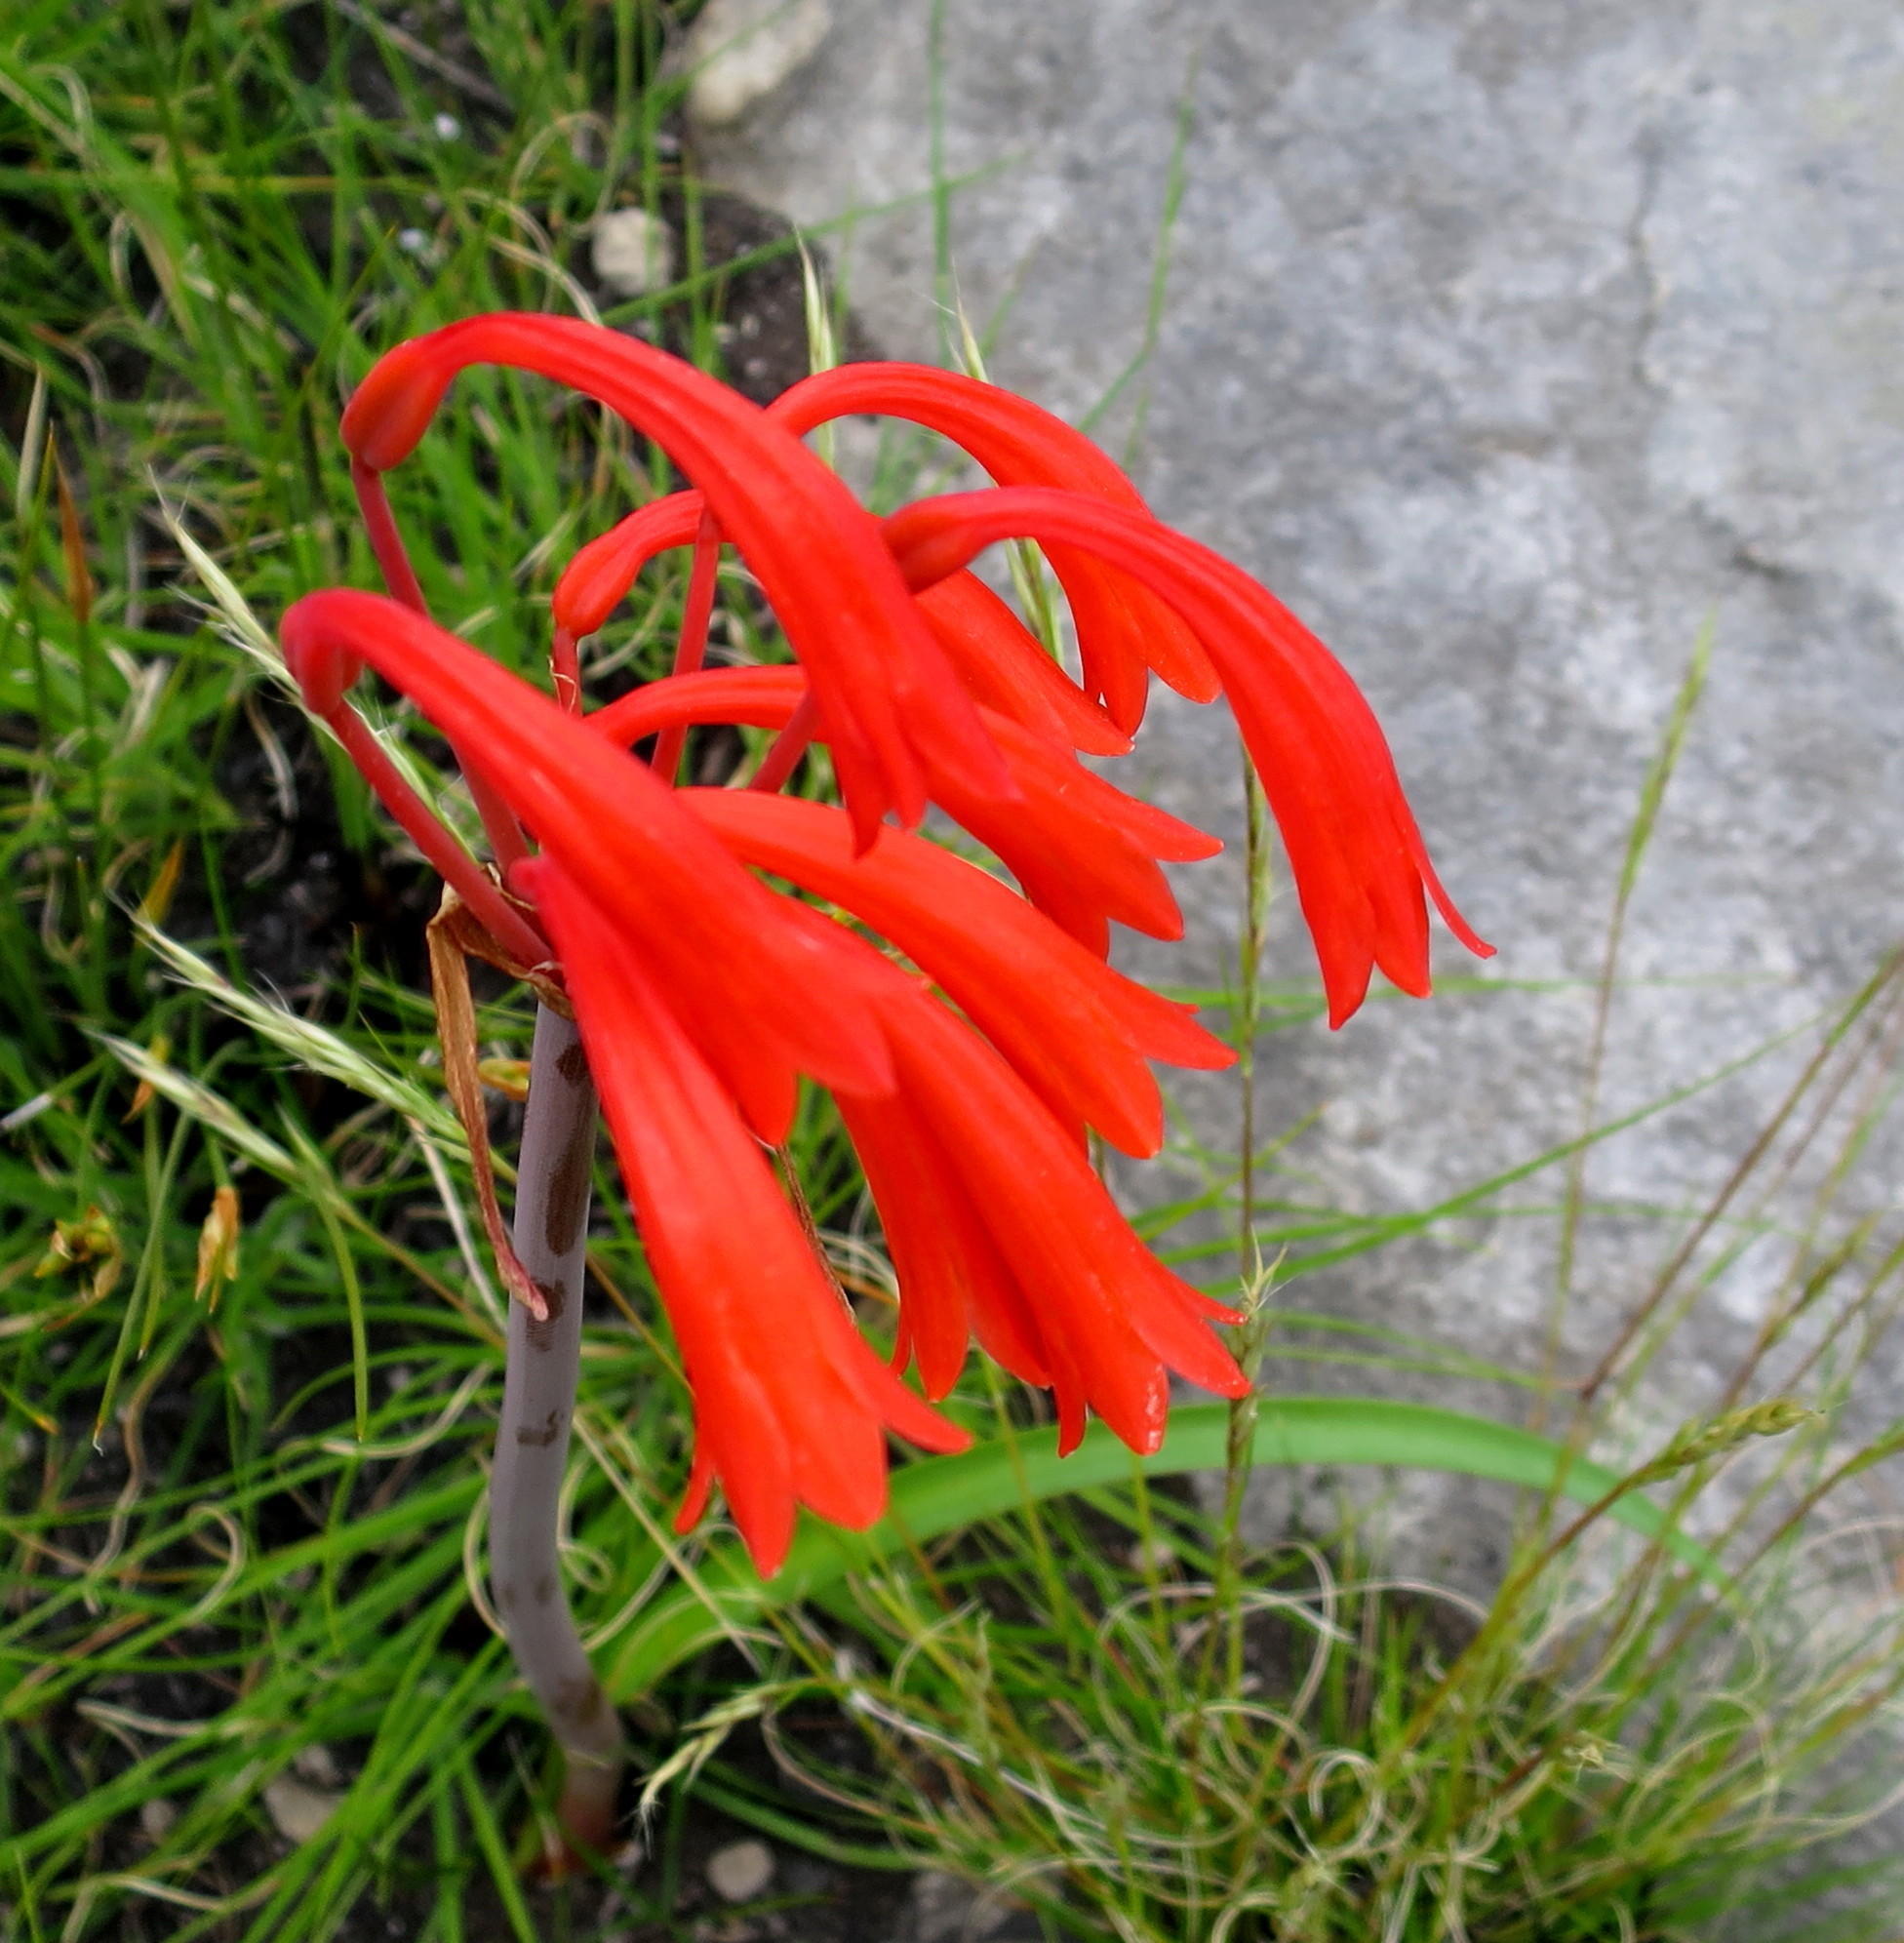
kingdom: Plantae
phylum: Tracheophyta
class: Liliopsida
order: Asparagales
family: Amaryllidaceae
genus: Cyrtanthus
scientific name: Cyrtanthus angustifolius
